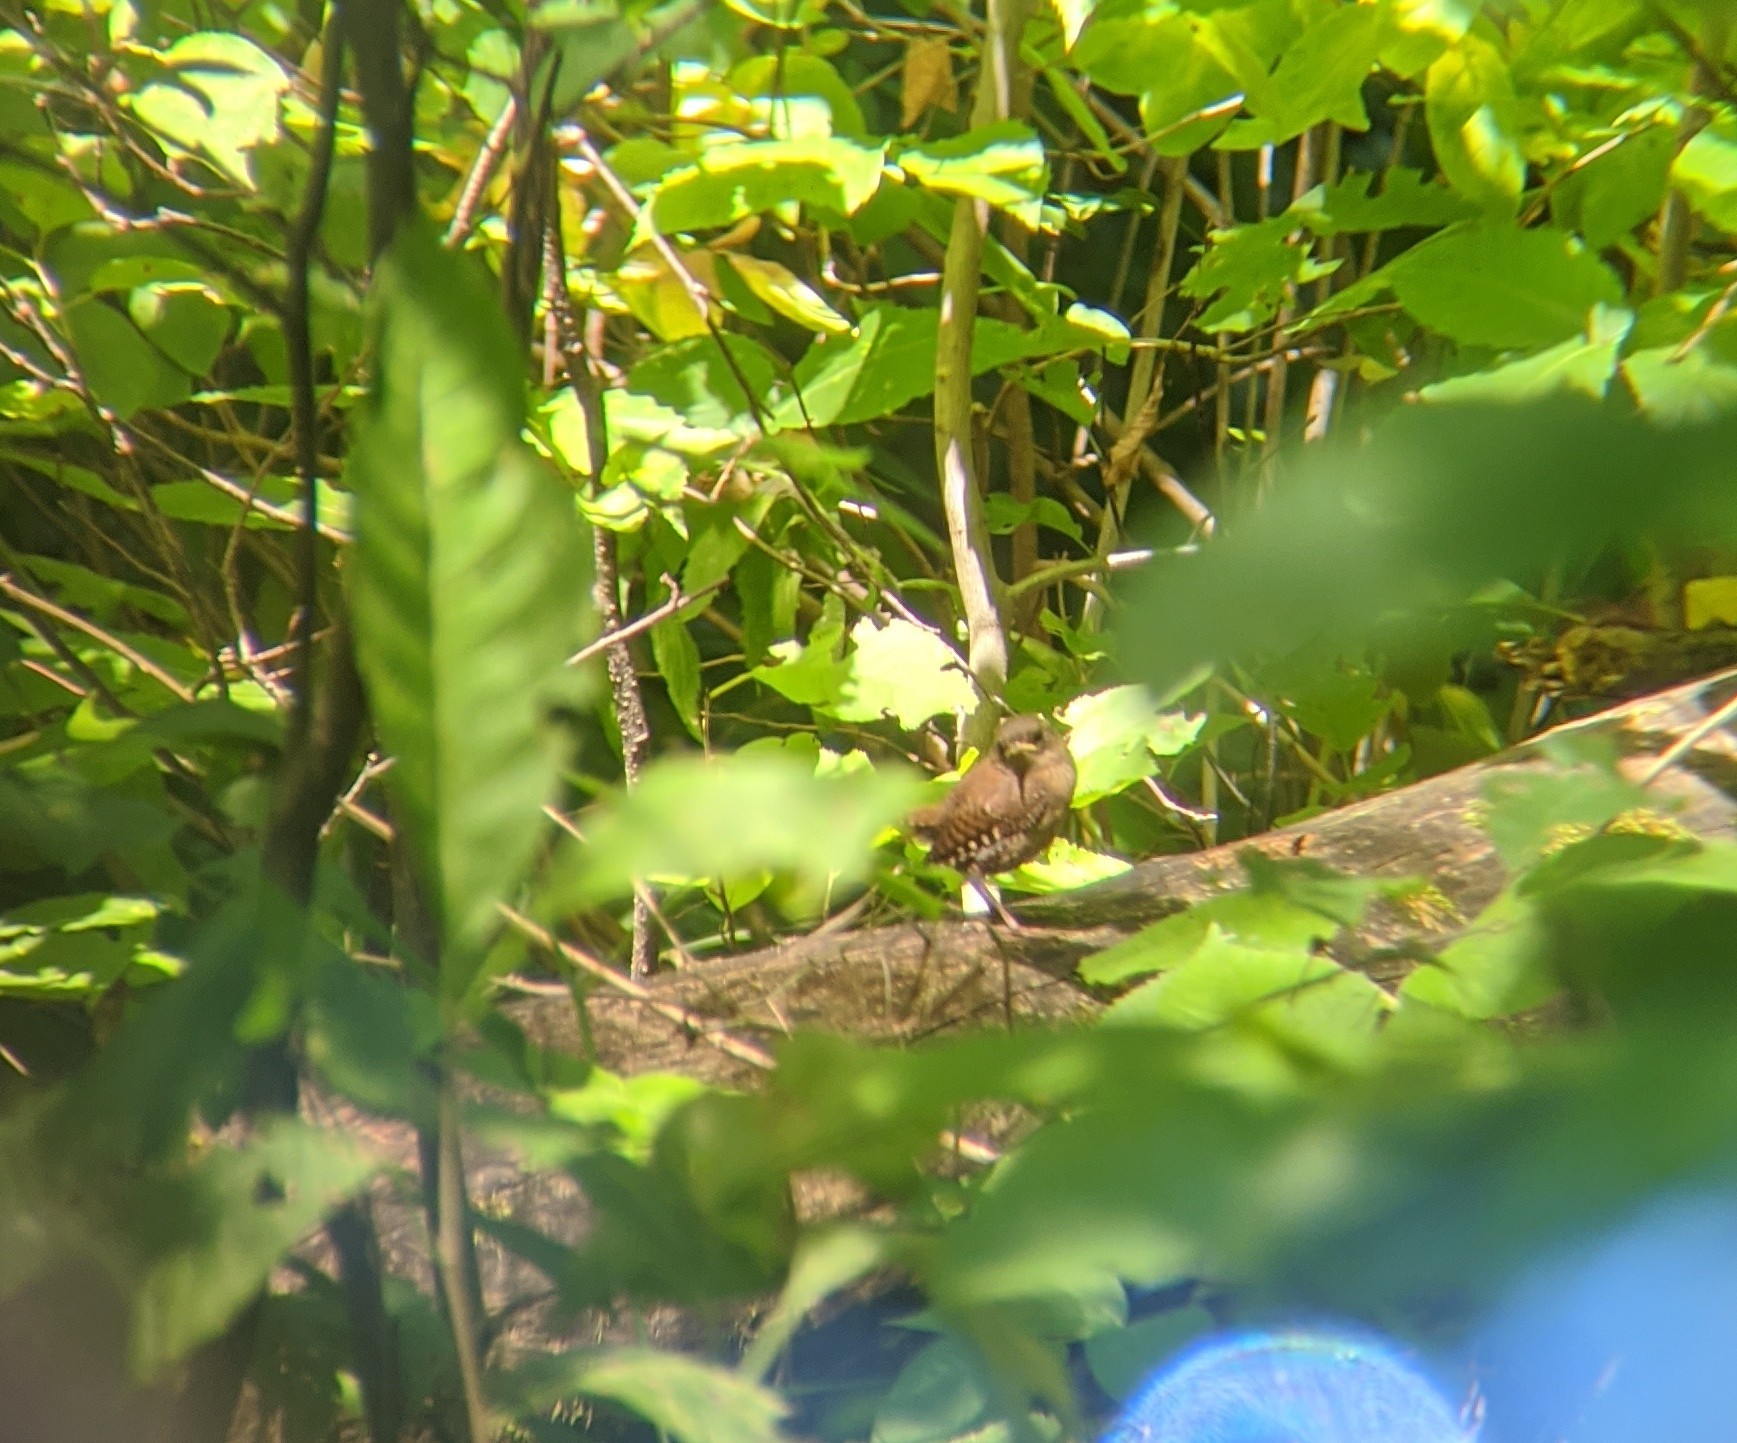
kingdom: Animalia
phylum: Chordata
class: Aves
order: Passeriformes
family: Troglodytidae
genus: Troglodytes
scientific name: Troglodytes aedon
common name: House wren
